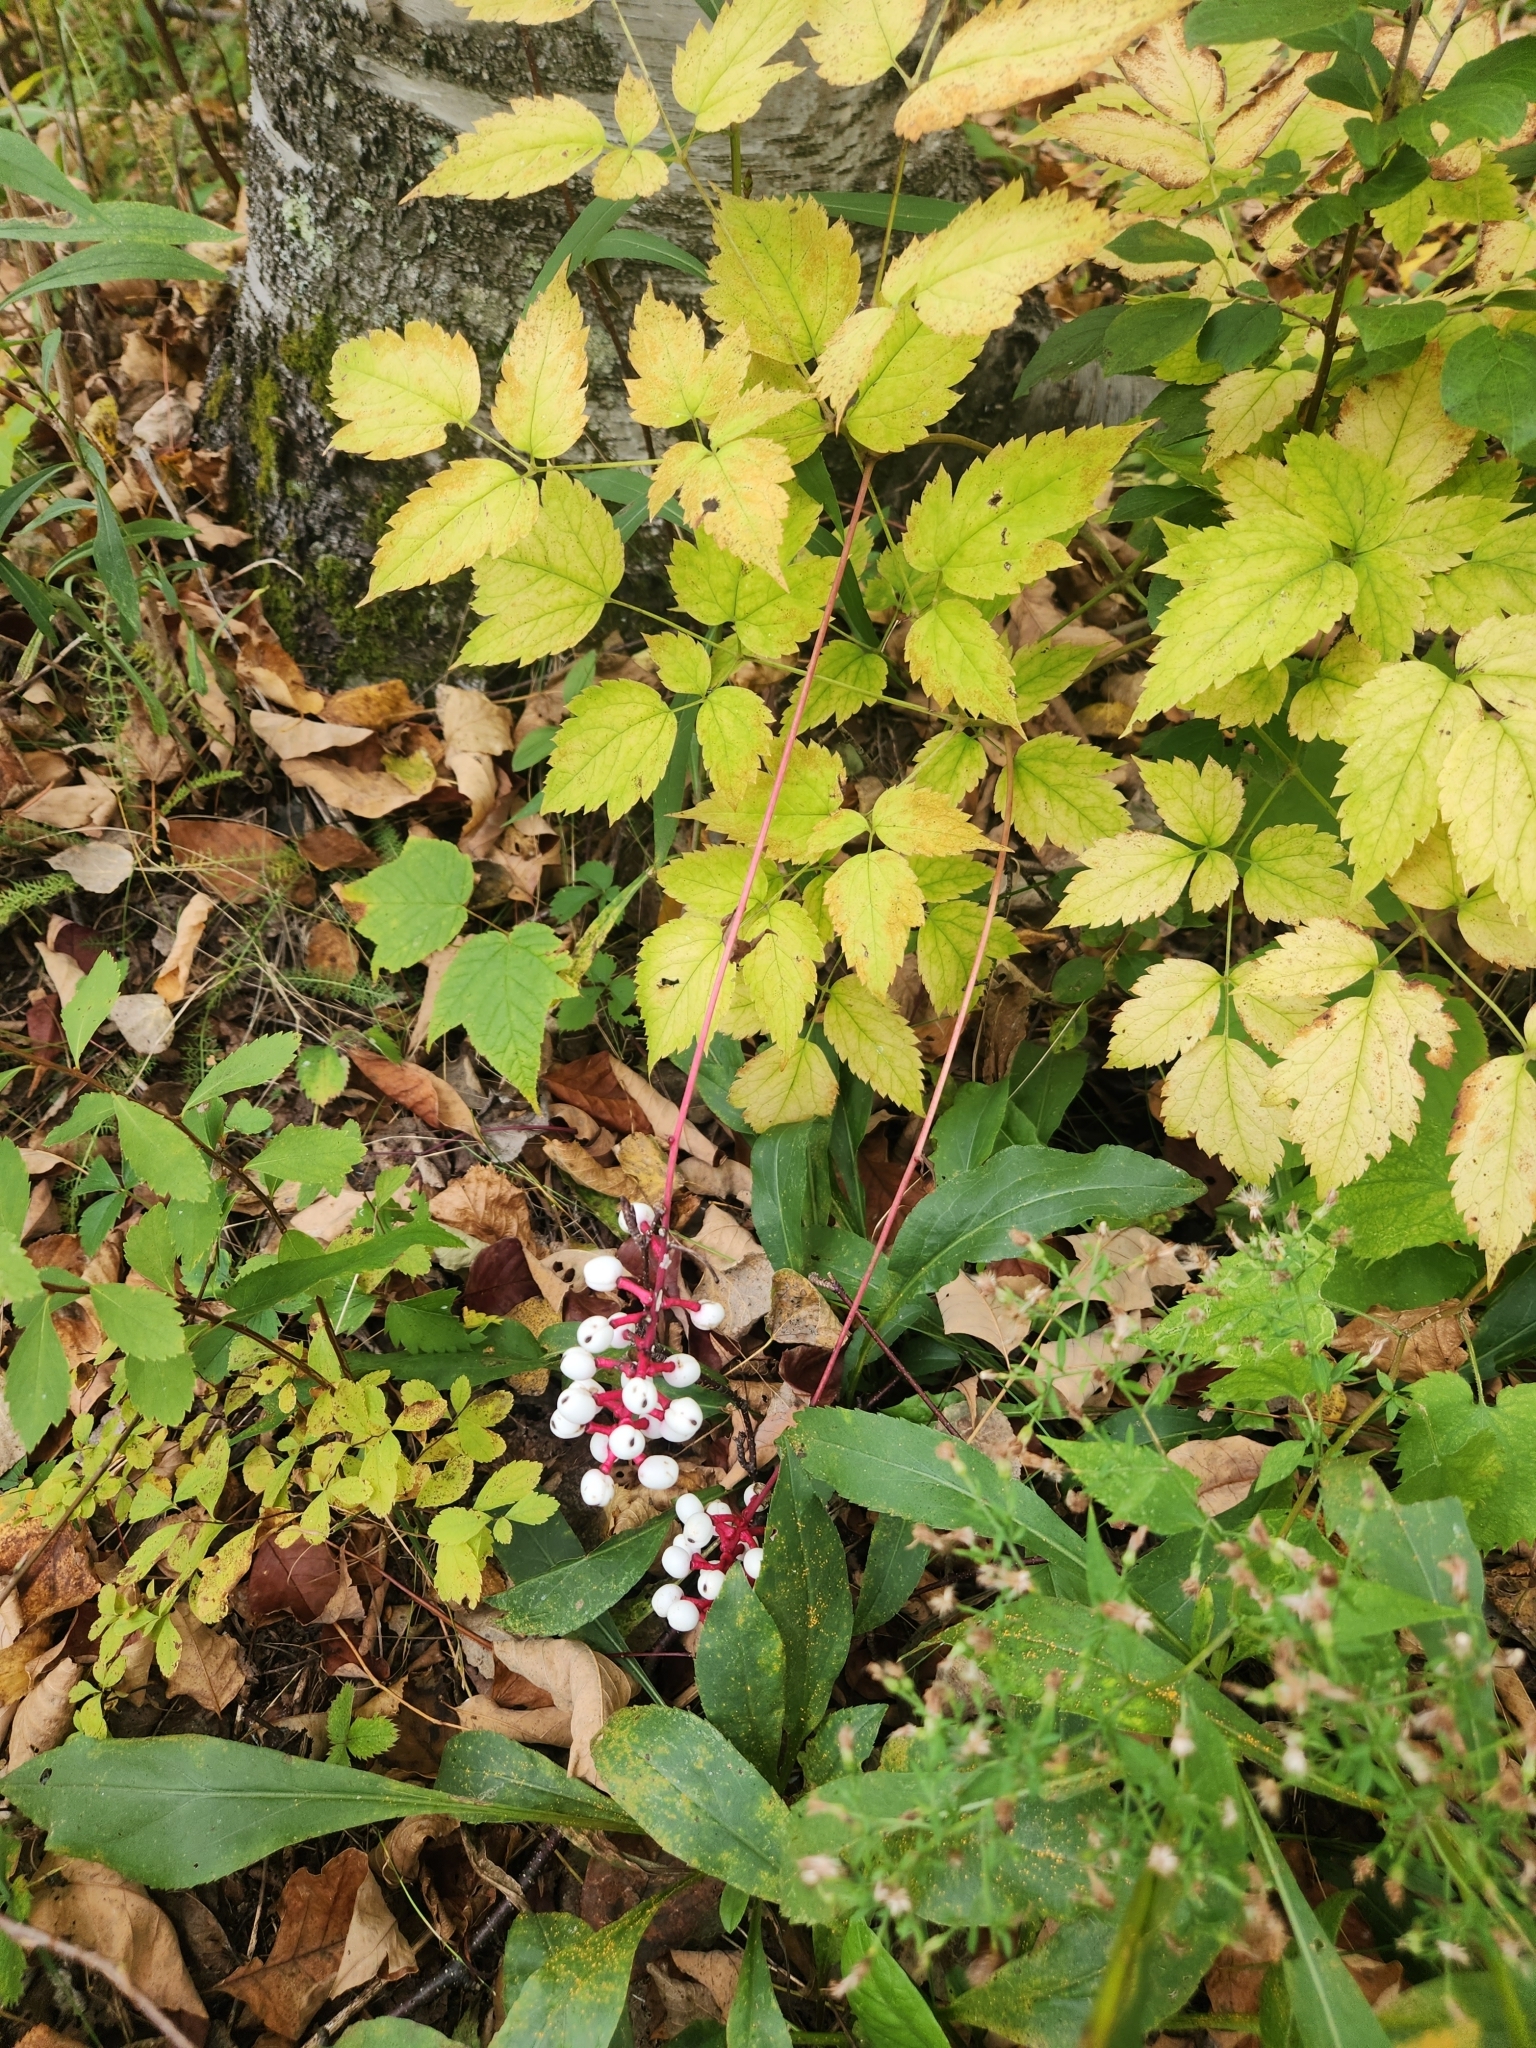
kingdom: Plantae
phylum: Tracheophyta
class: Magnoliopsida
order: Ranunculales
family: Ranunculaceae
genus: Actaea
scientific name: Actaea pachypoda
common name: Doll's-eyes
